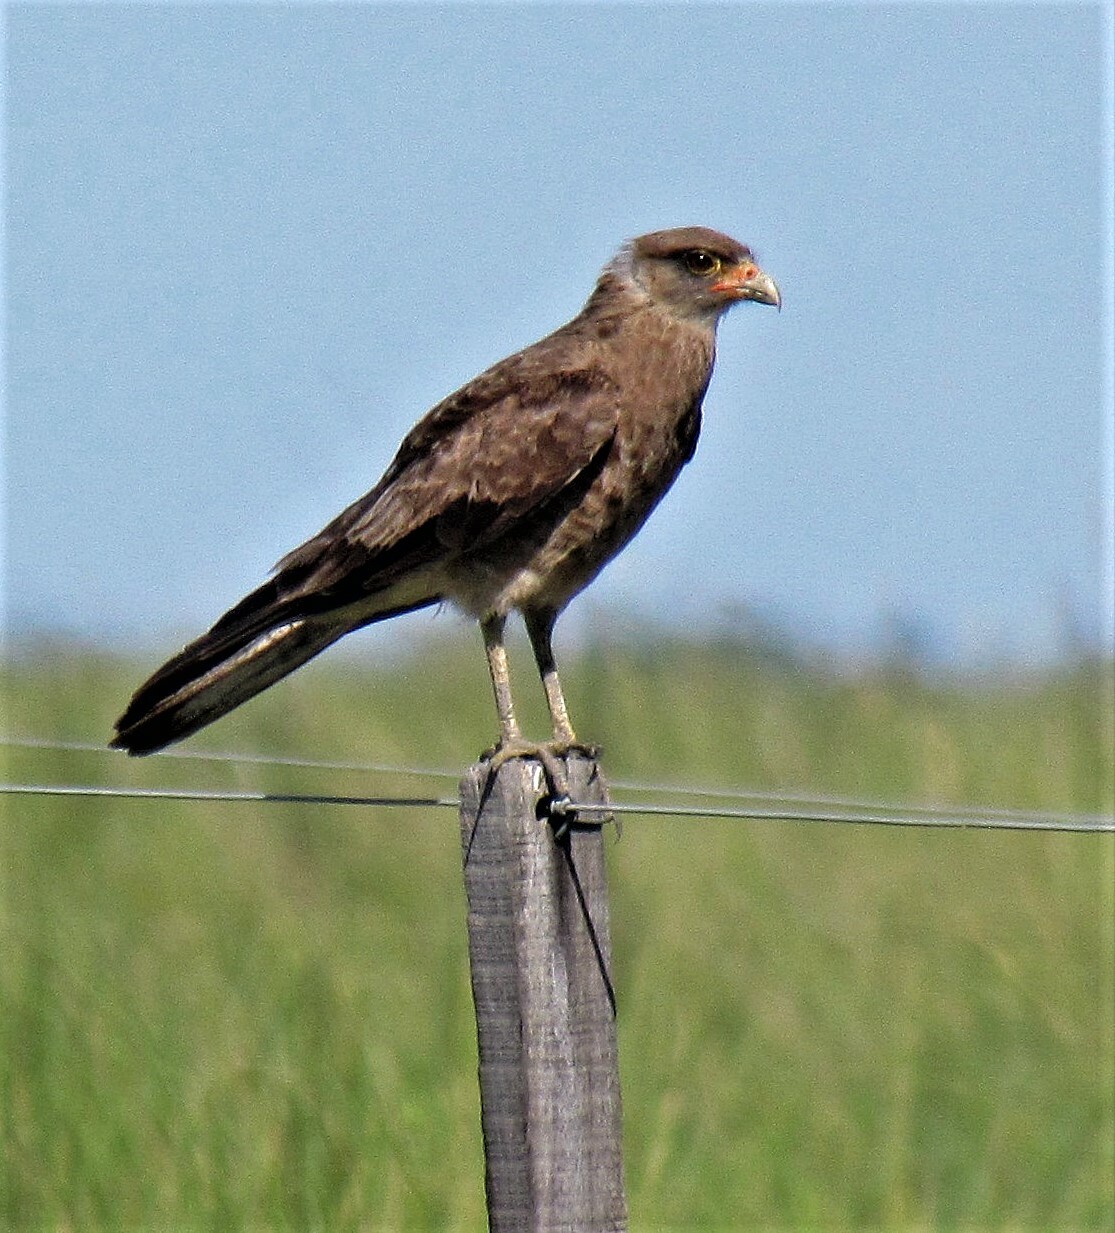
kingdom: Animalia
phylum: Chordata
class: Aves
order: Falconiformes
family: Falconidae
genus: Daptrius
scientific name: Daptrius
